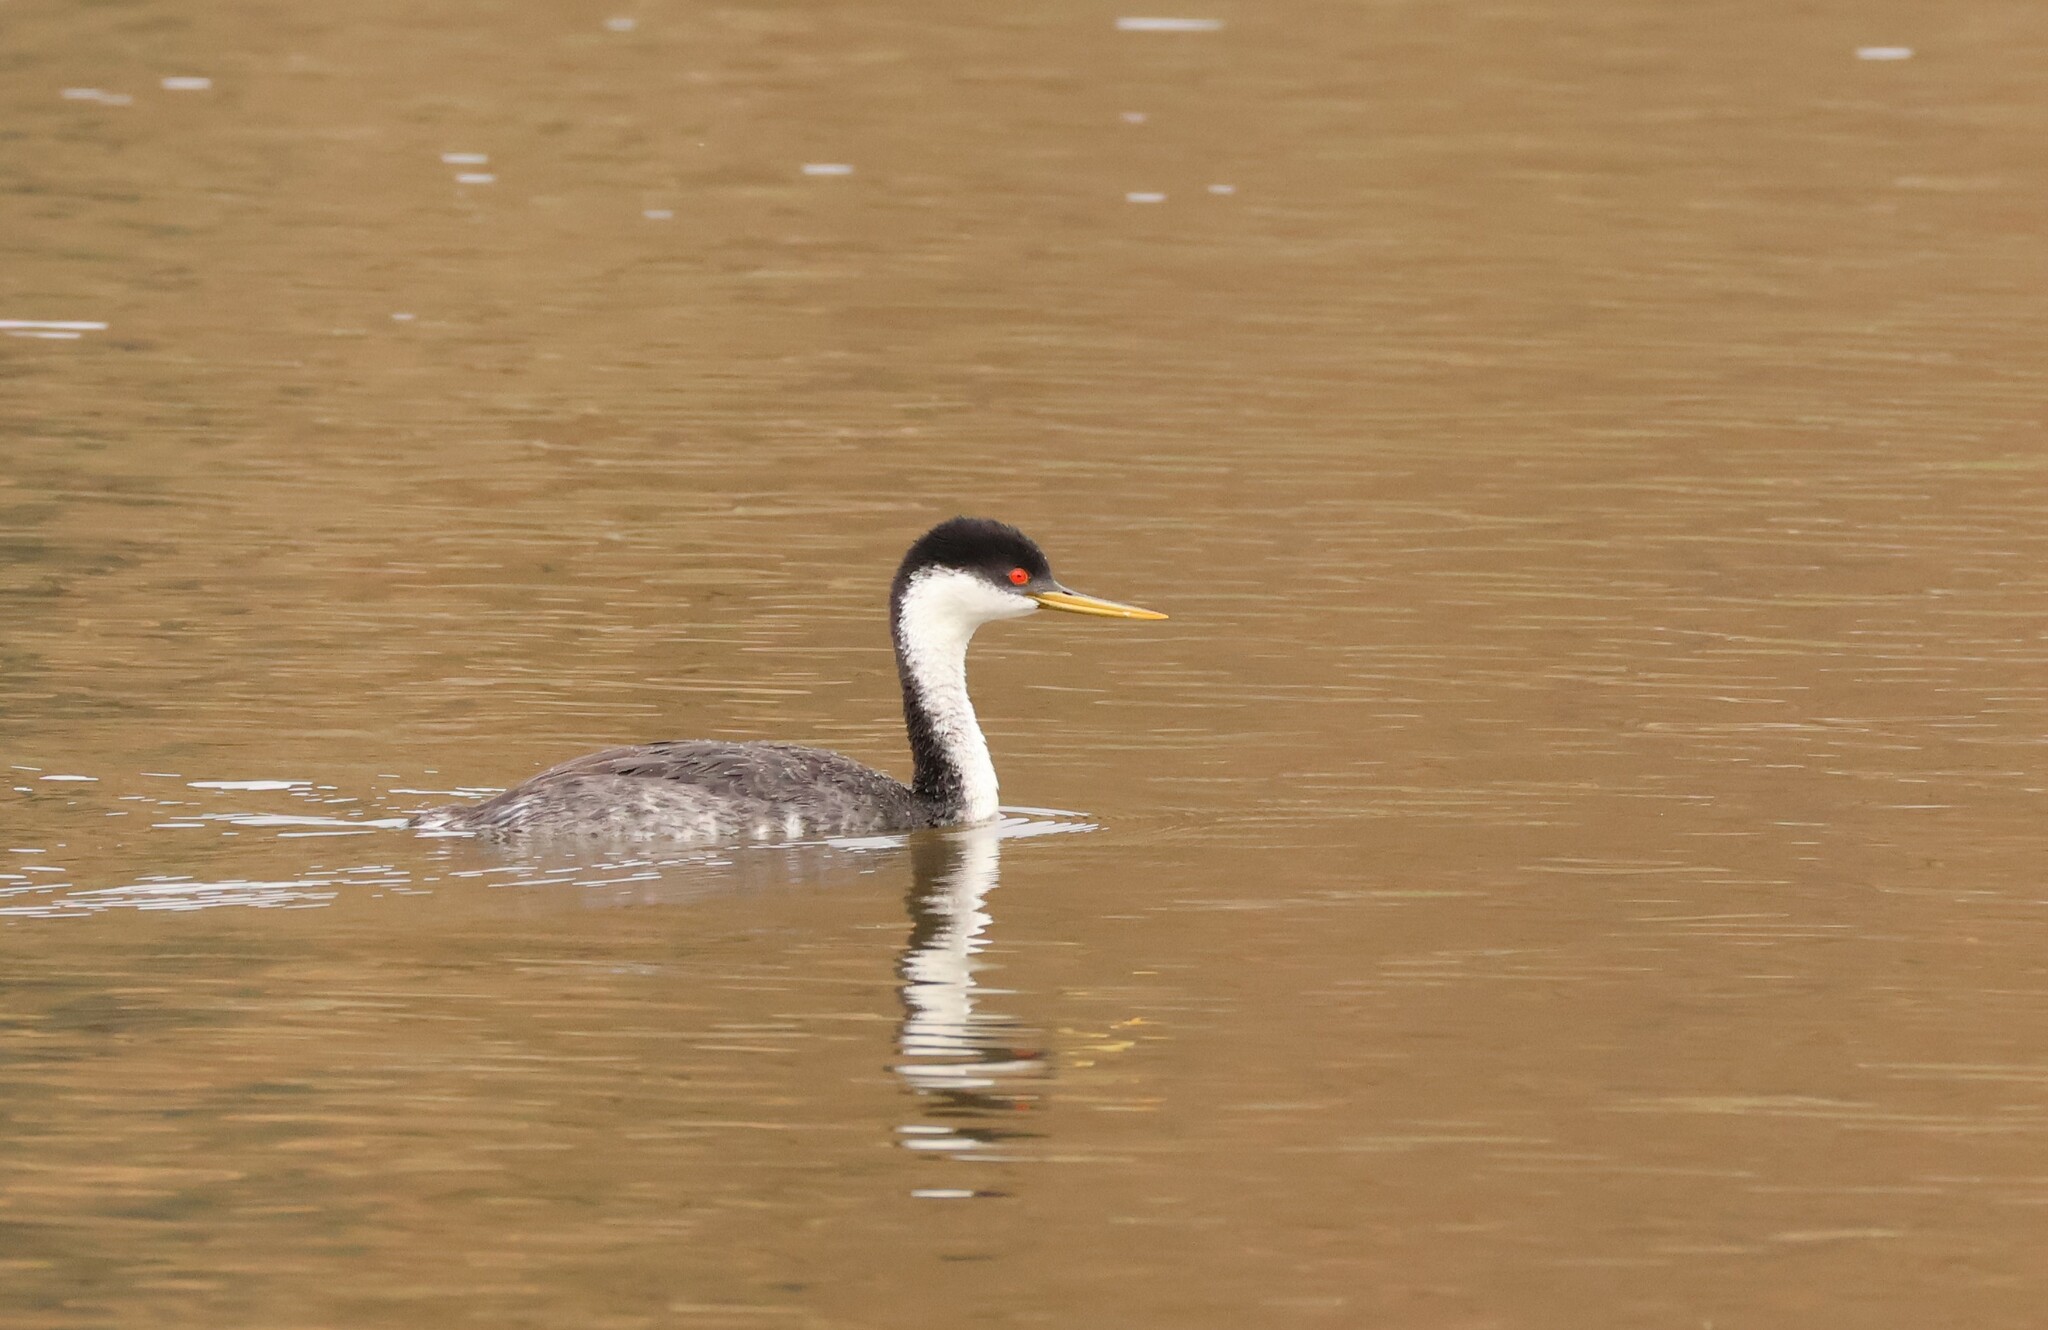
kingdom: Animalia
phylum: Chordata
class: Aves
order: Podicipediformes
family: Podicipedidae
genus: Aechmophorus
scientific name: Aechmophorus occidentalis
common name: Western grebe
